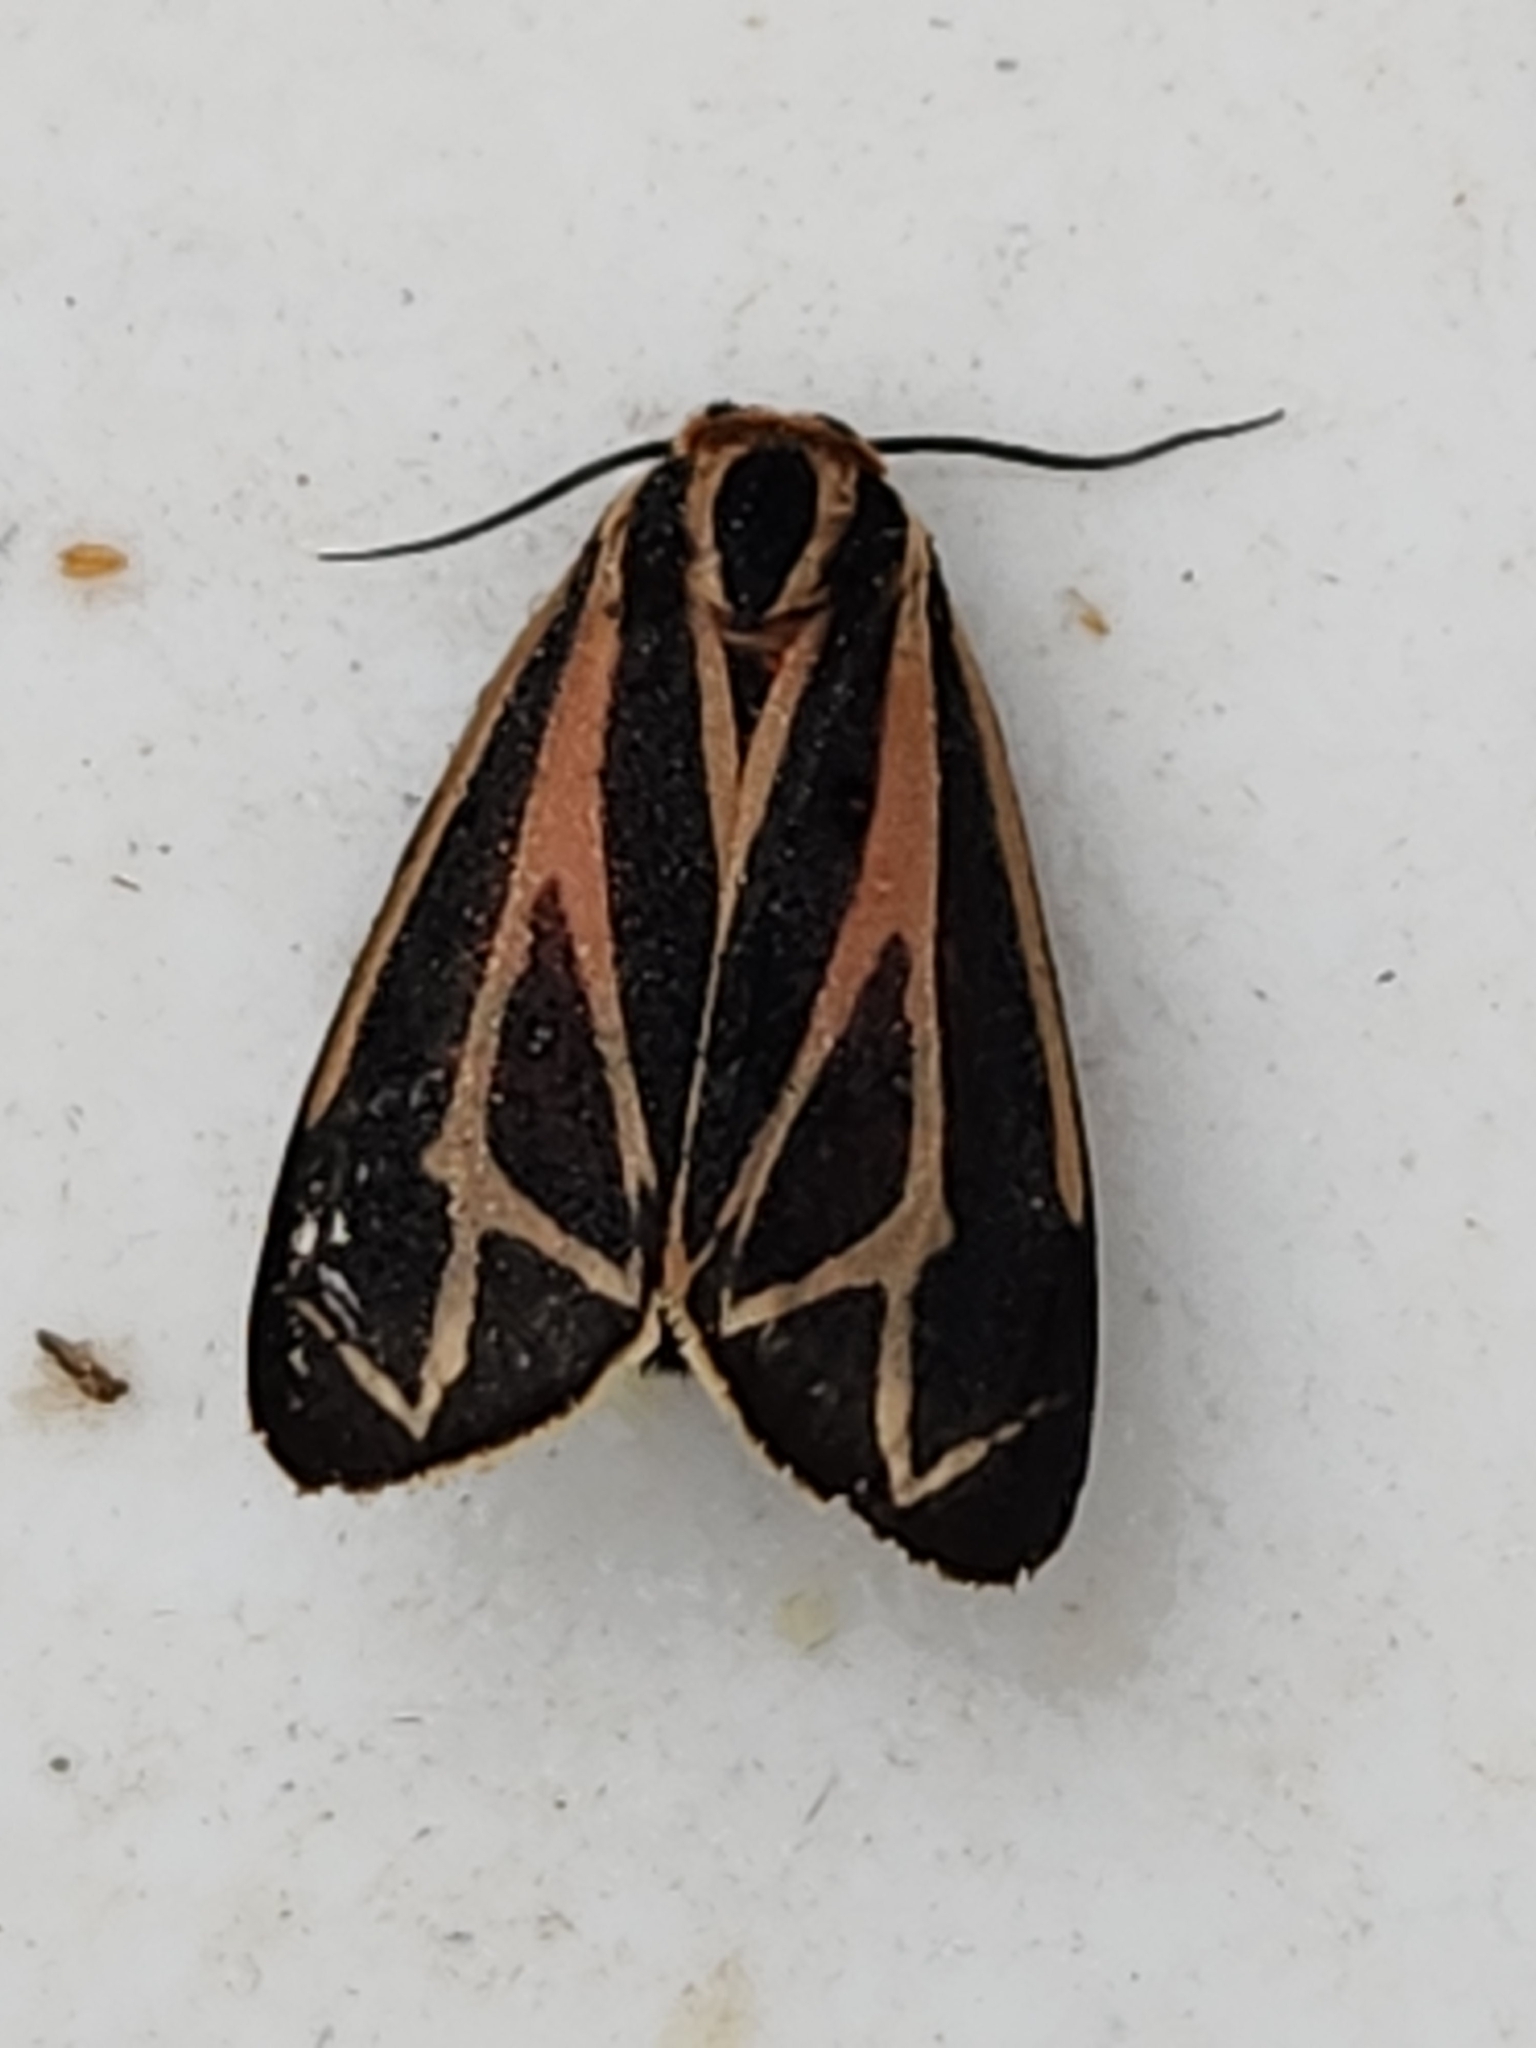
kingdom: Animalia
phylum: Arthropoda
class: Insecta
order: Lepidoptera
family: Erebidae
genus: Apantesis
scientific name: Apantesis phalerata
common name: Harnessed tiger moth
